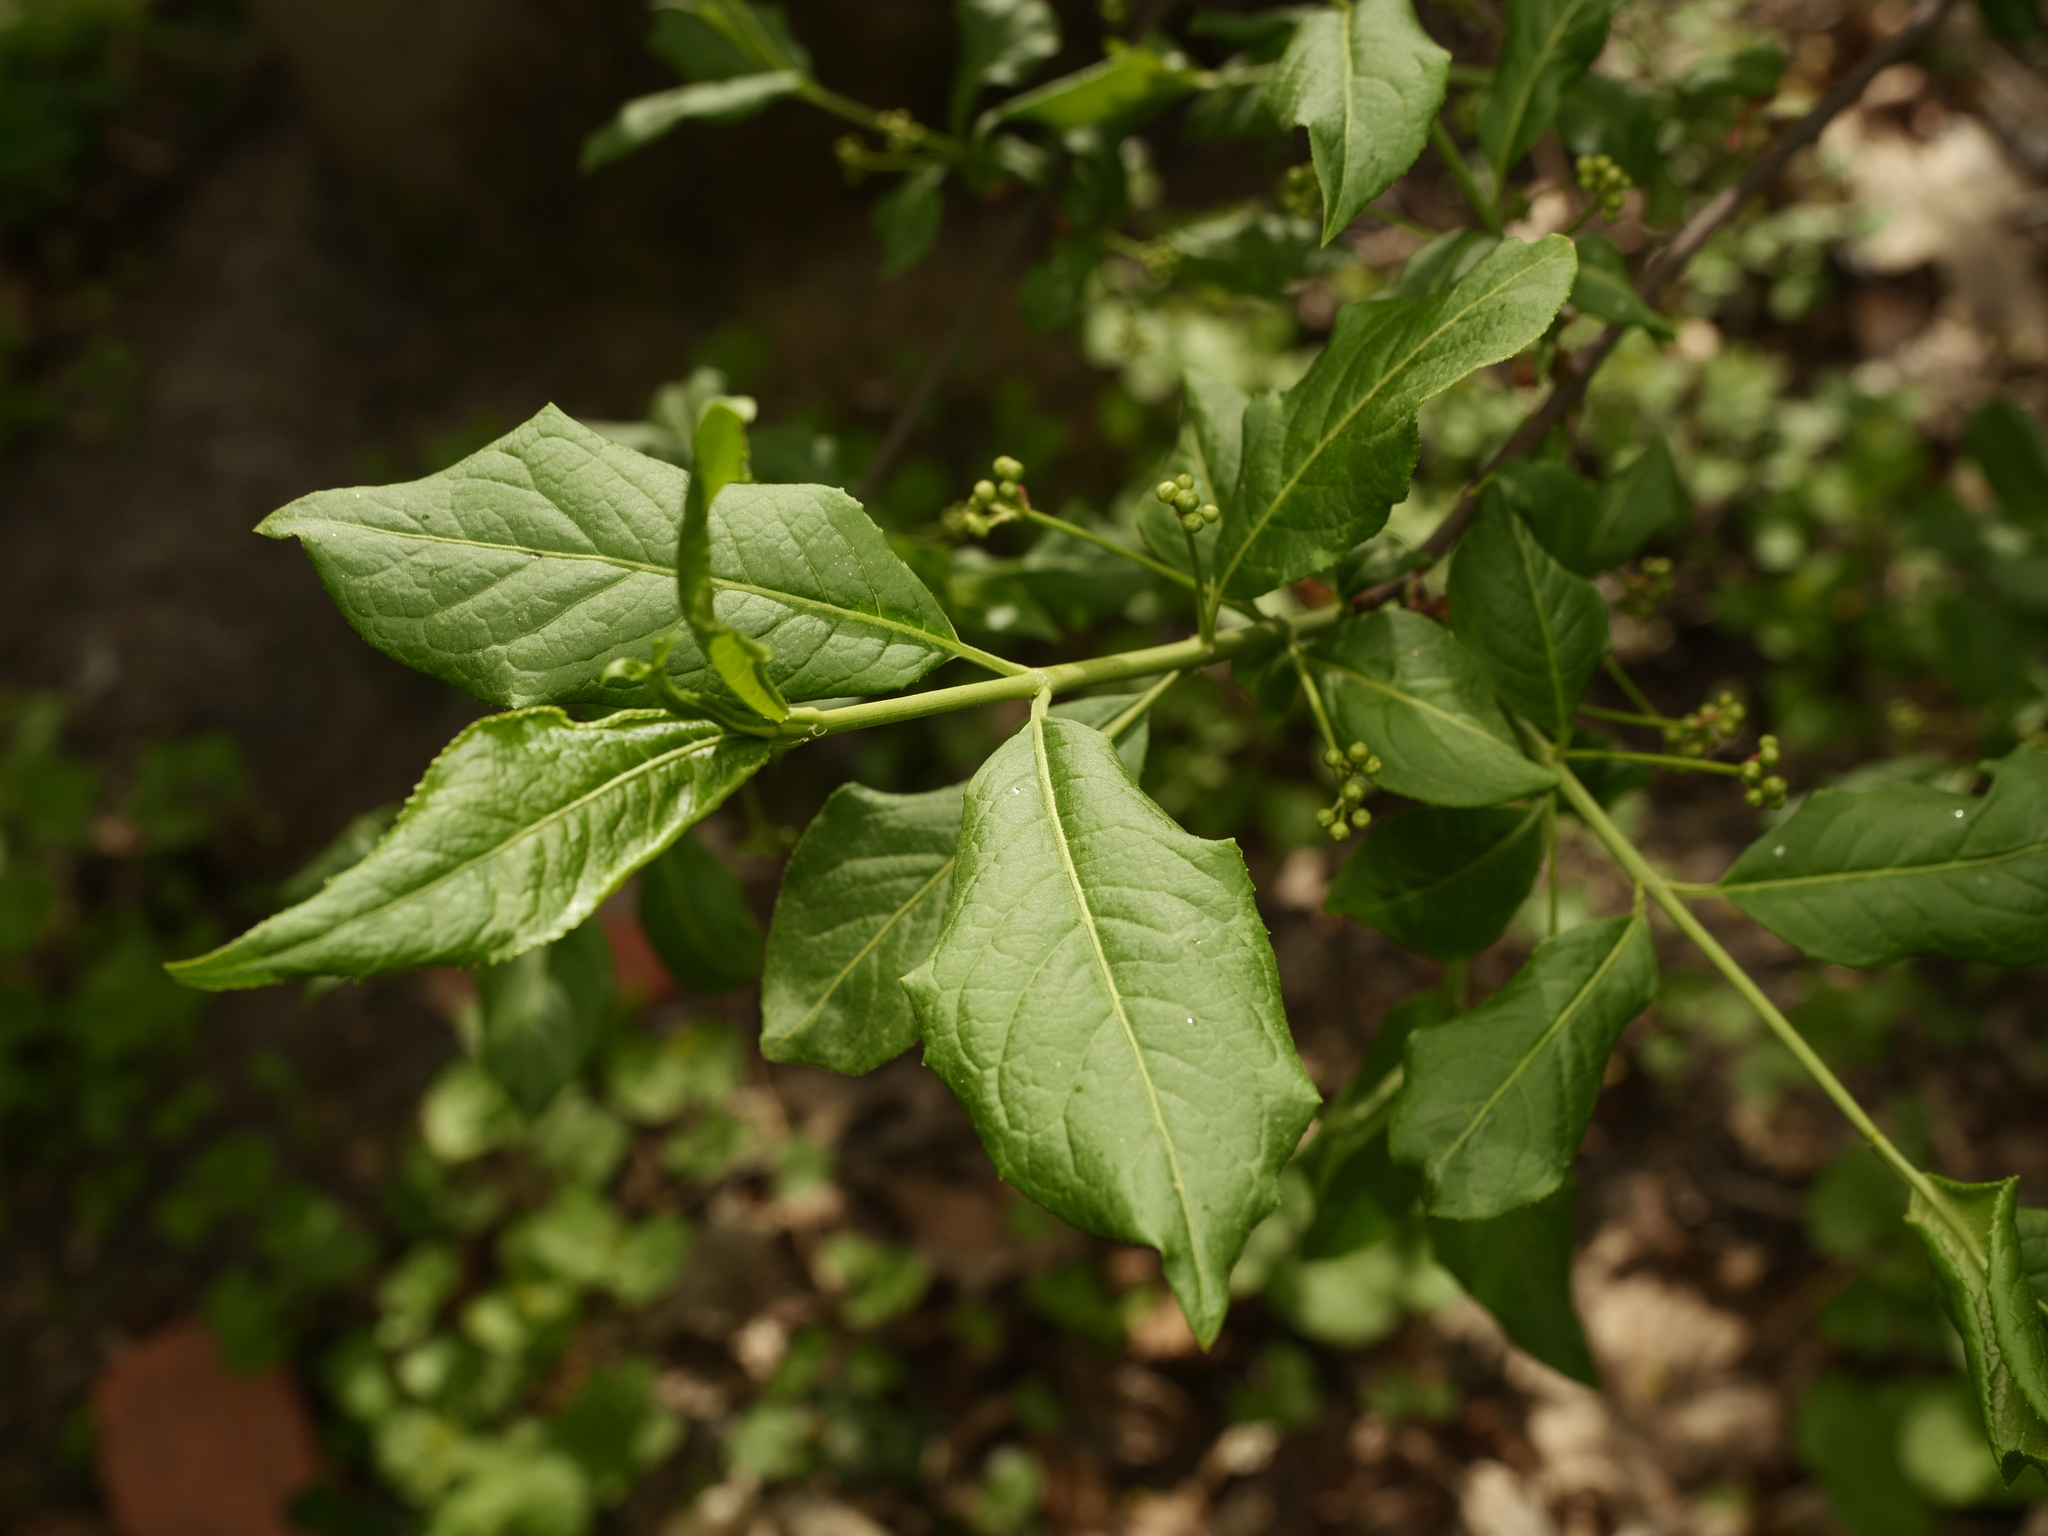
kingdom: Plantae
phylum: Tracheophyta
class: Magnoliopsida
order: Celastrales
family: Celastraceae
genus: Euonymus
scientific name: Euonymus europaeus
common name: Spindle
